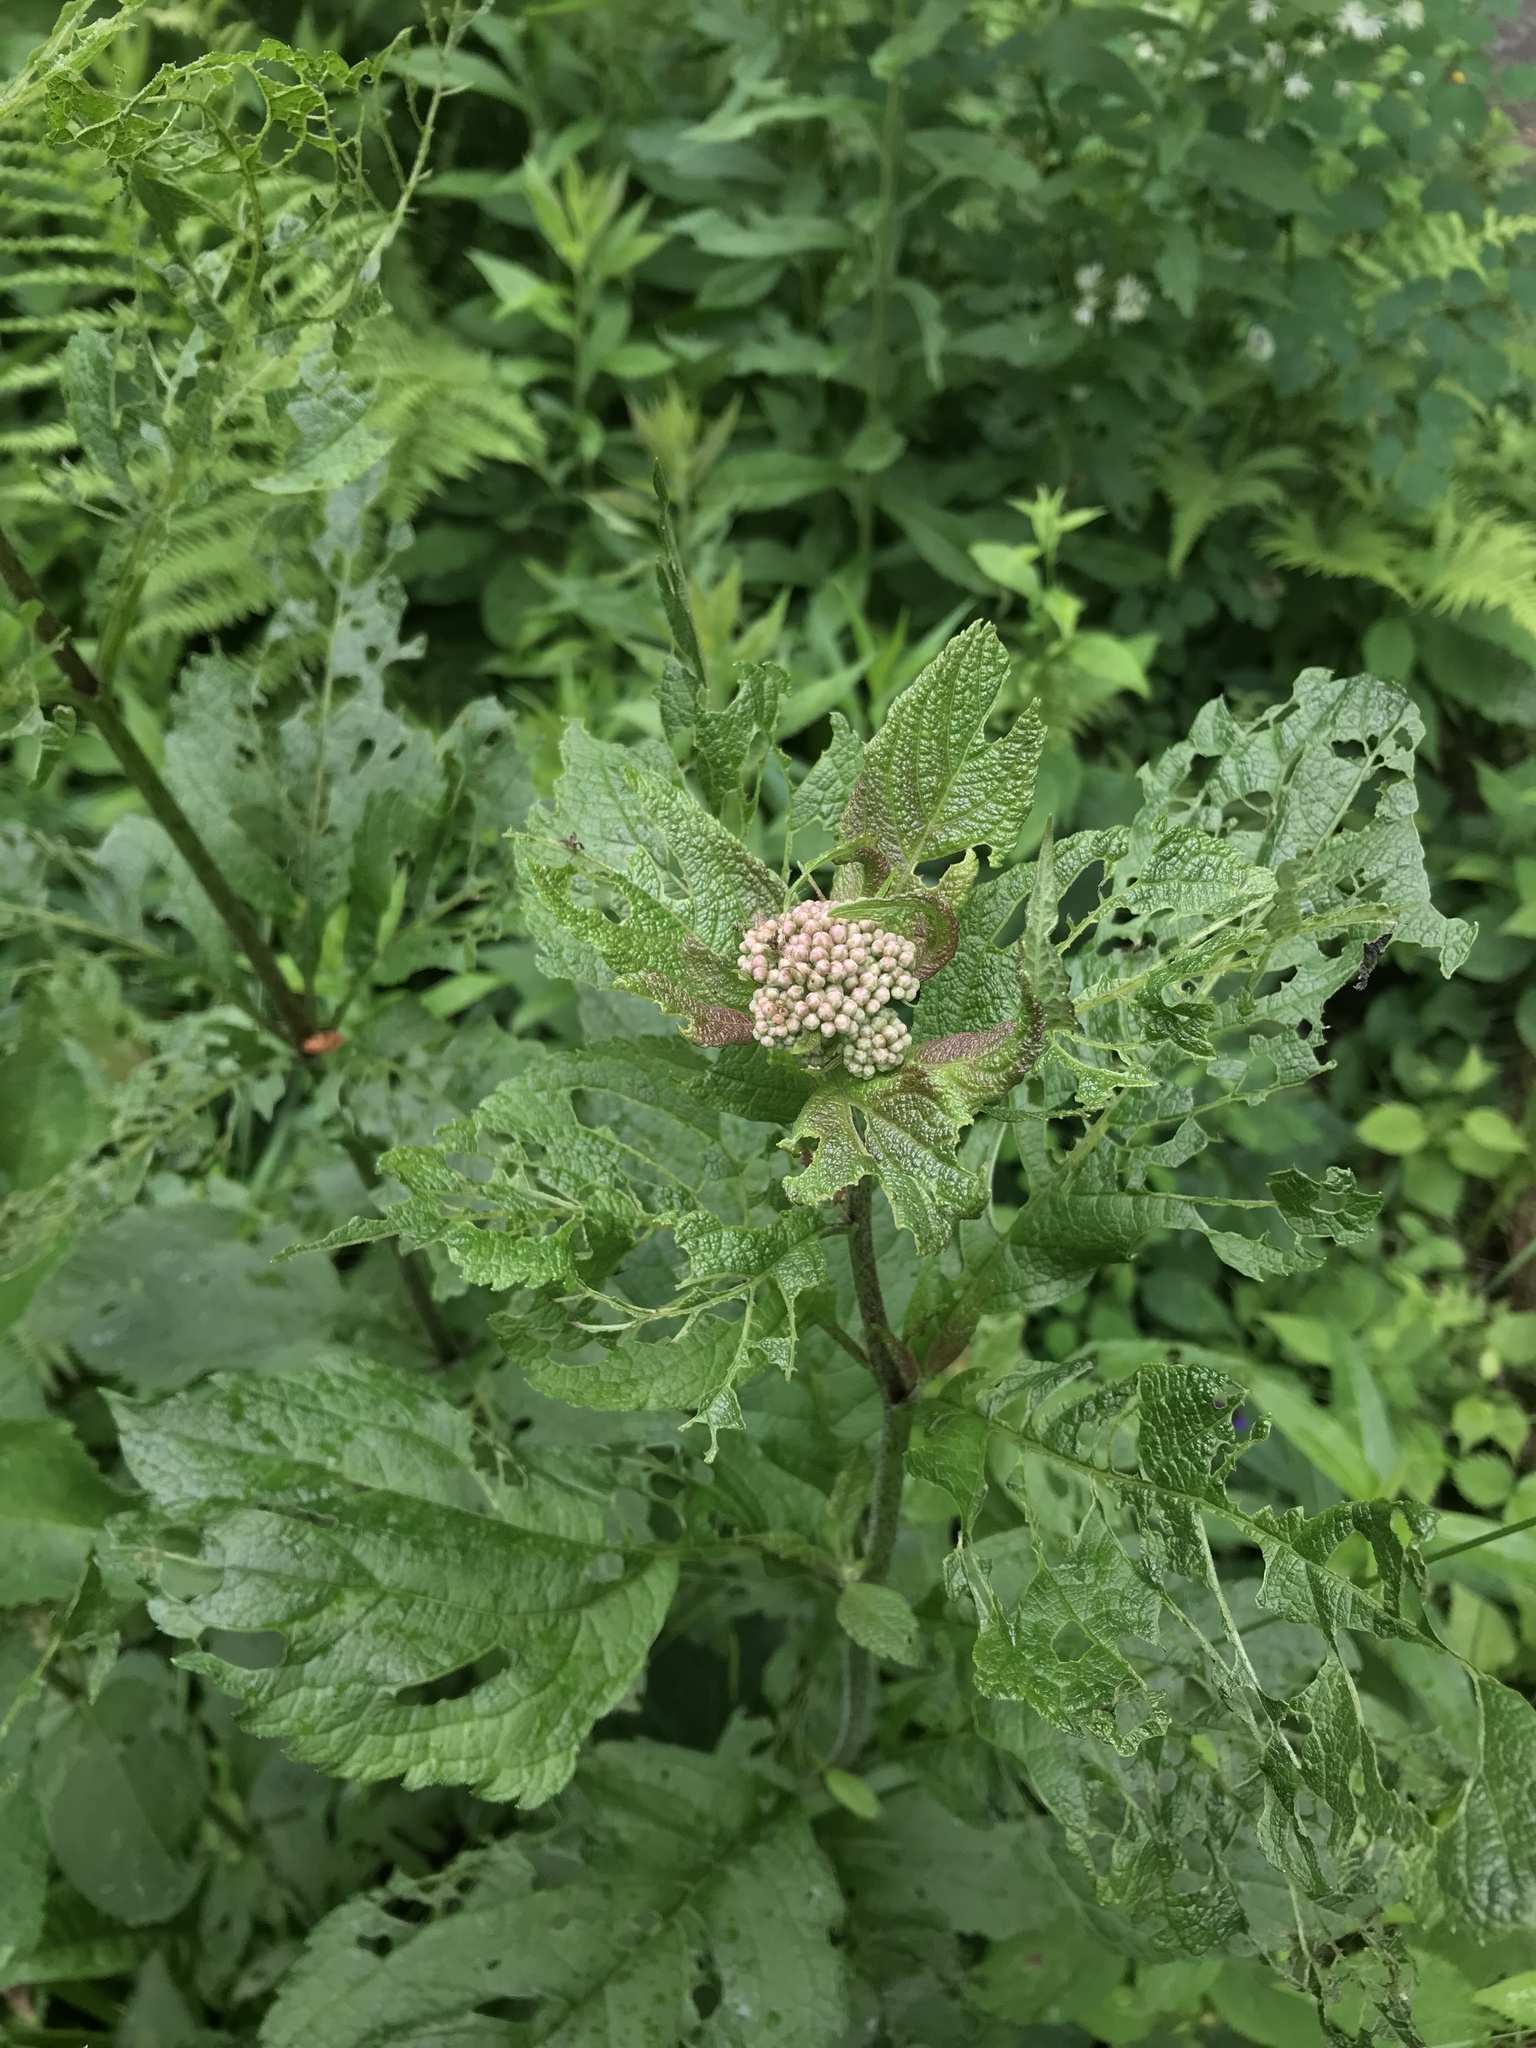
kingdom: Plantae
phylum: Tracheophyta
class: Magnoliopsida
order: Asterales
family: Asteraceae
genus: Eutrochium
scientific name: Eutrochium maculatum
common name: Spotted joe pye weed
